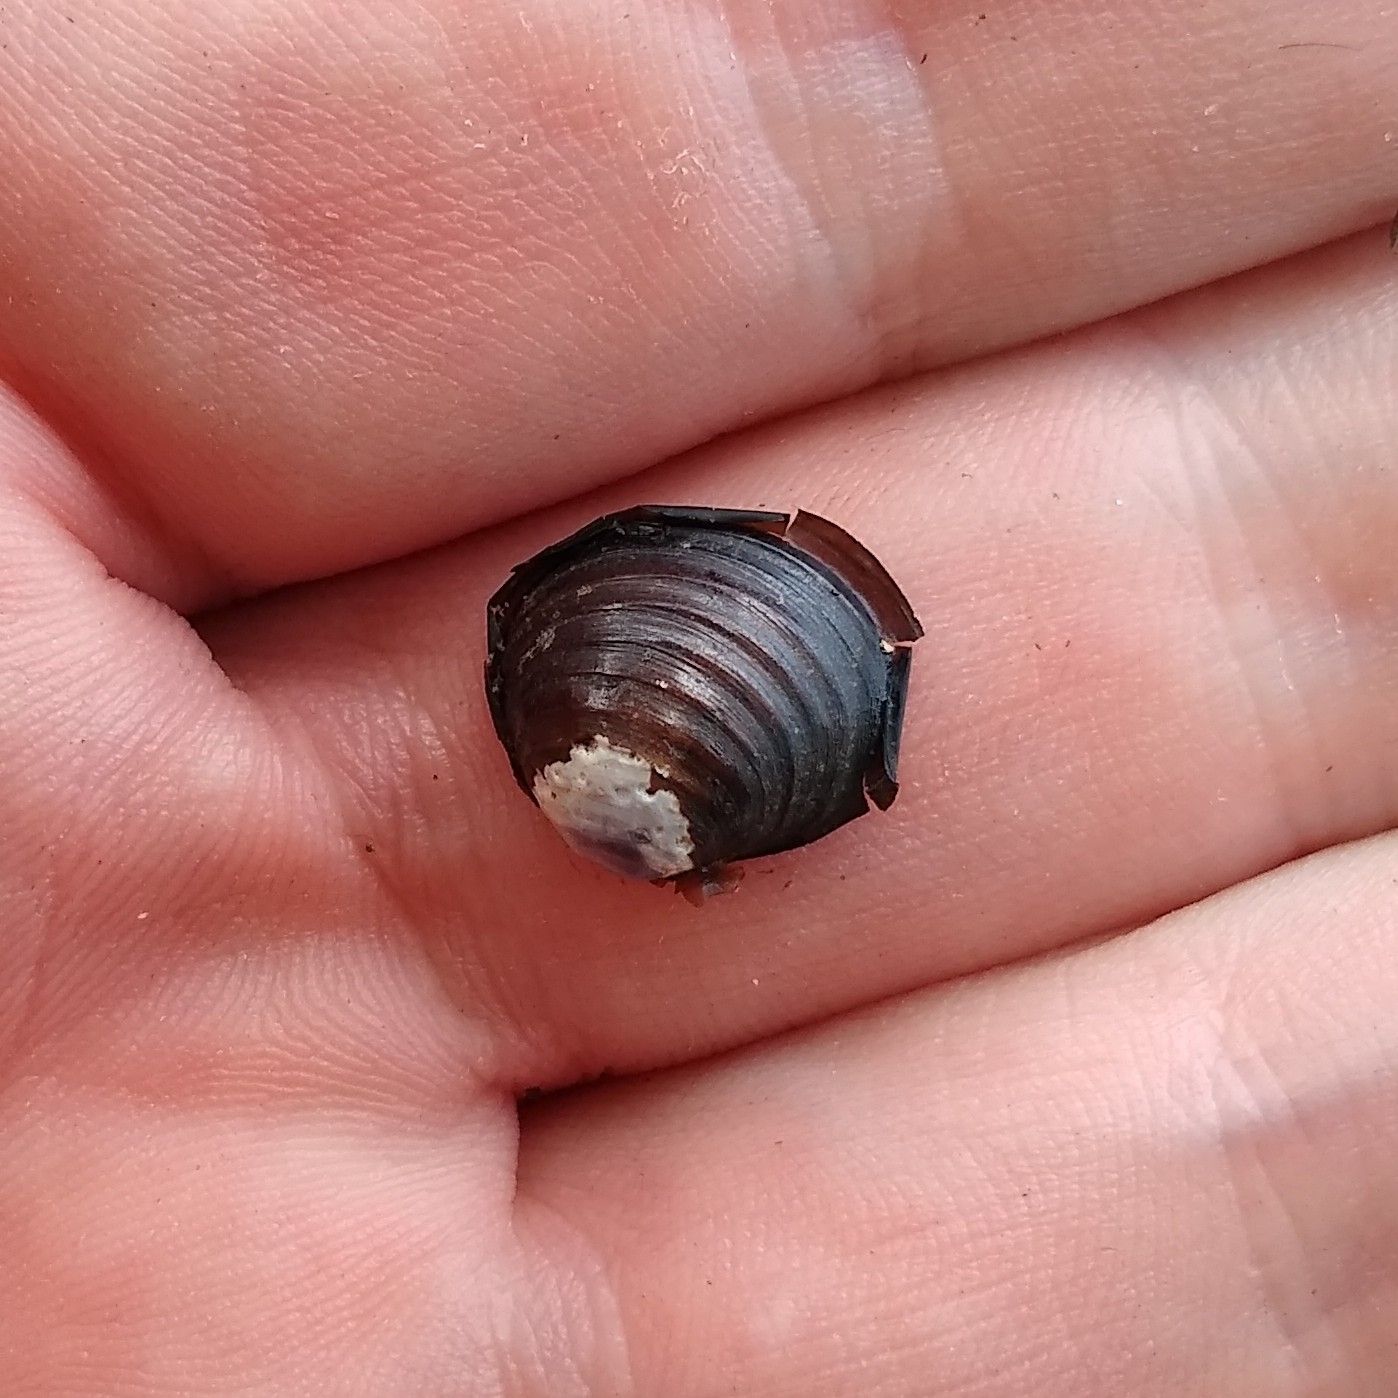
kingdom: Animalia
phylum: Mollusca
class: Bivalvia
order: Venerida
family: Cyrenidae
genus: Corbicula
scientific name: Corbicula fluminea
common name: Asian clam
